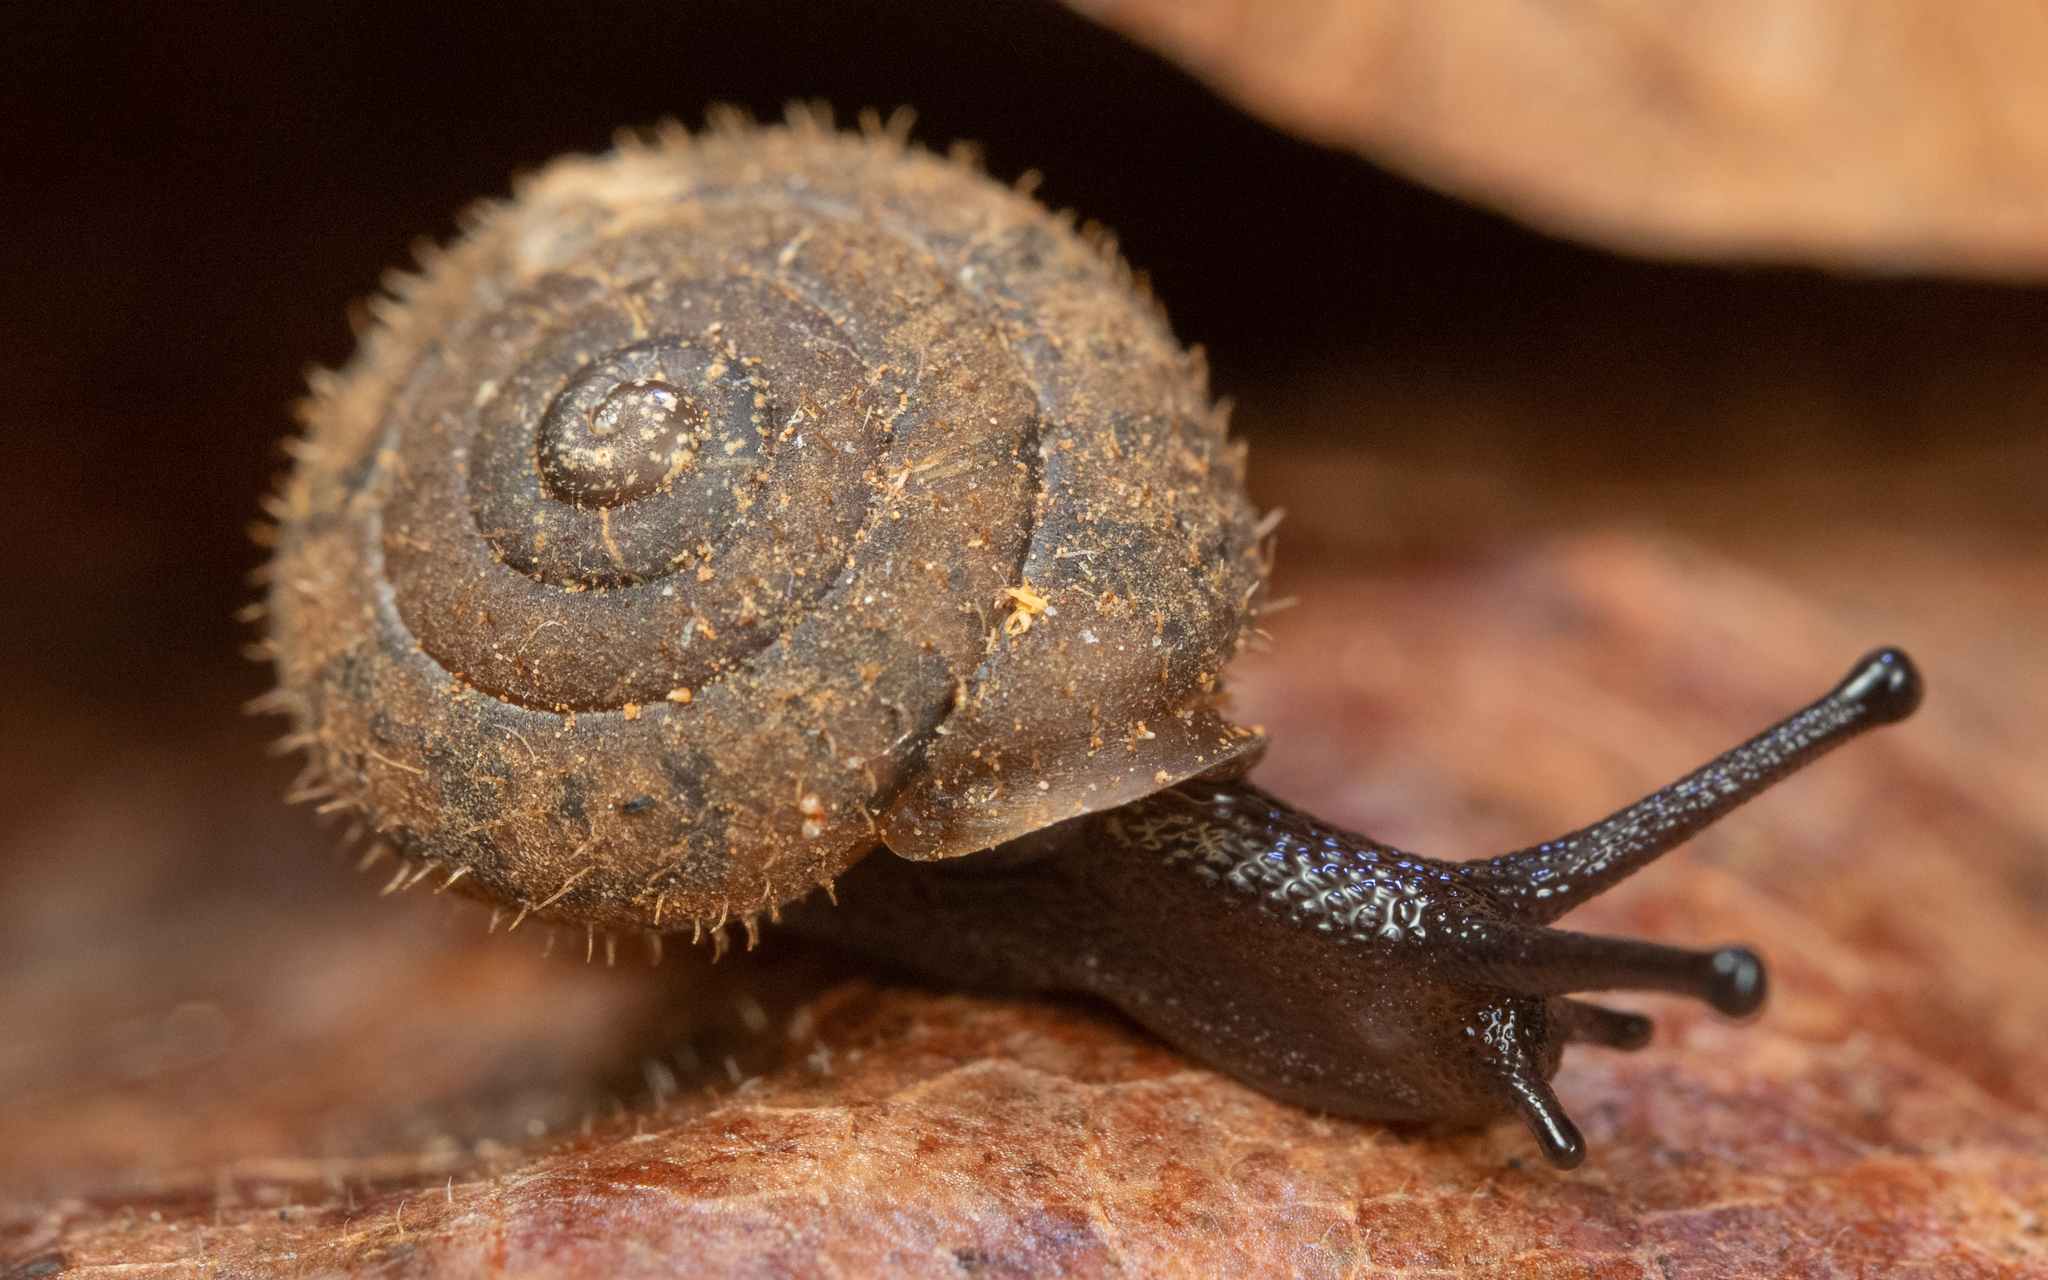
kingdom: Animalia
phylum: Mollusca
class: Gastropoda
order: Stylommatophora
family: Polygyridae
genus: Cryptomastix
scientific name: Cryptomastix germana
